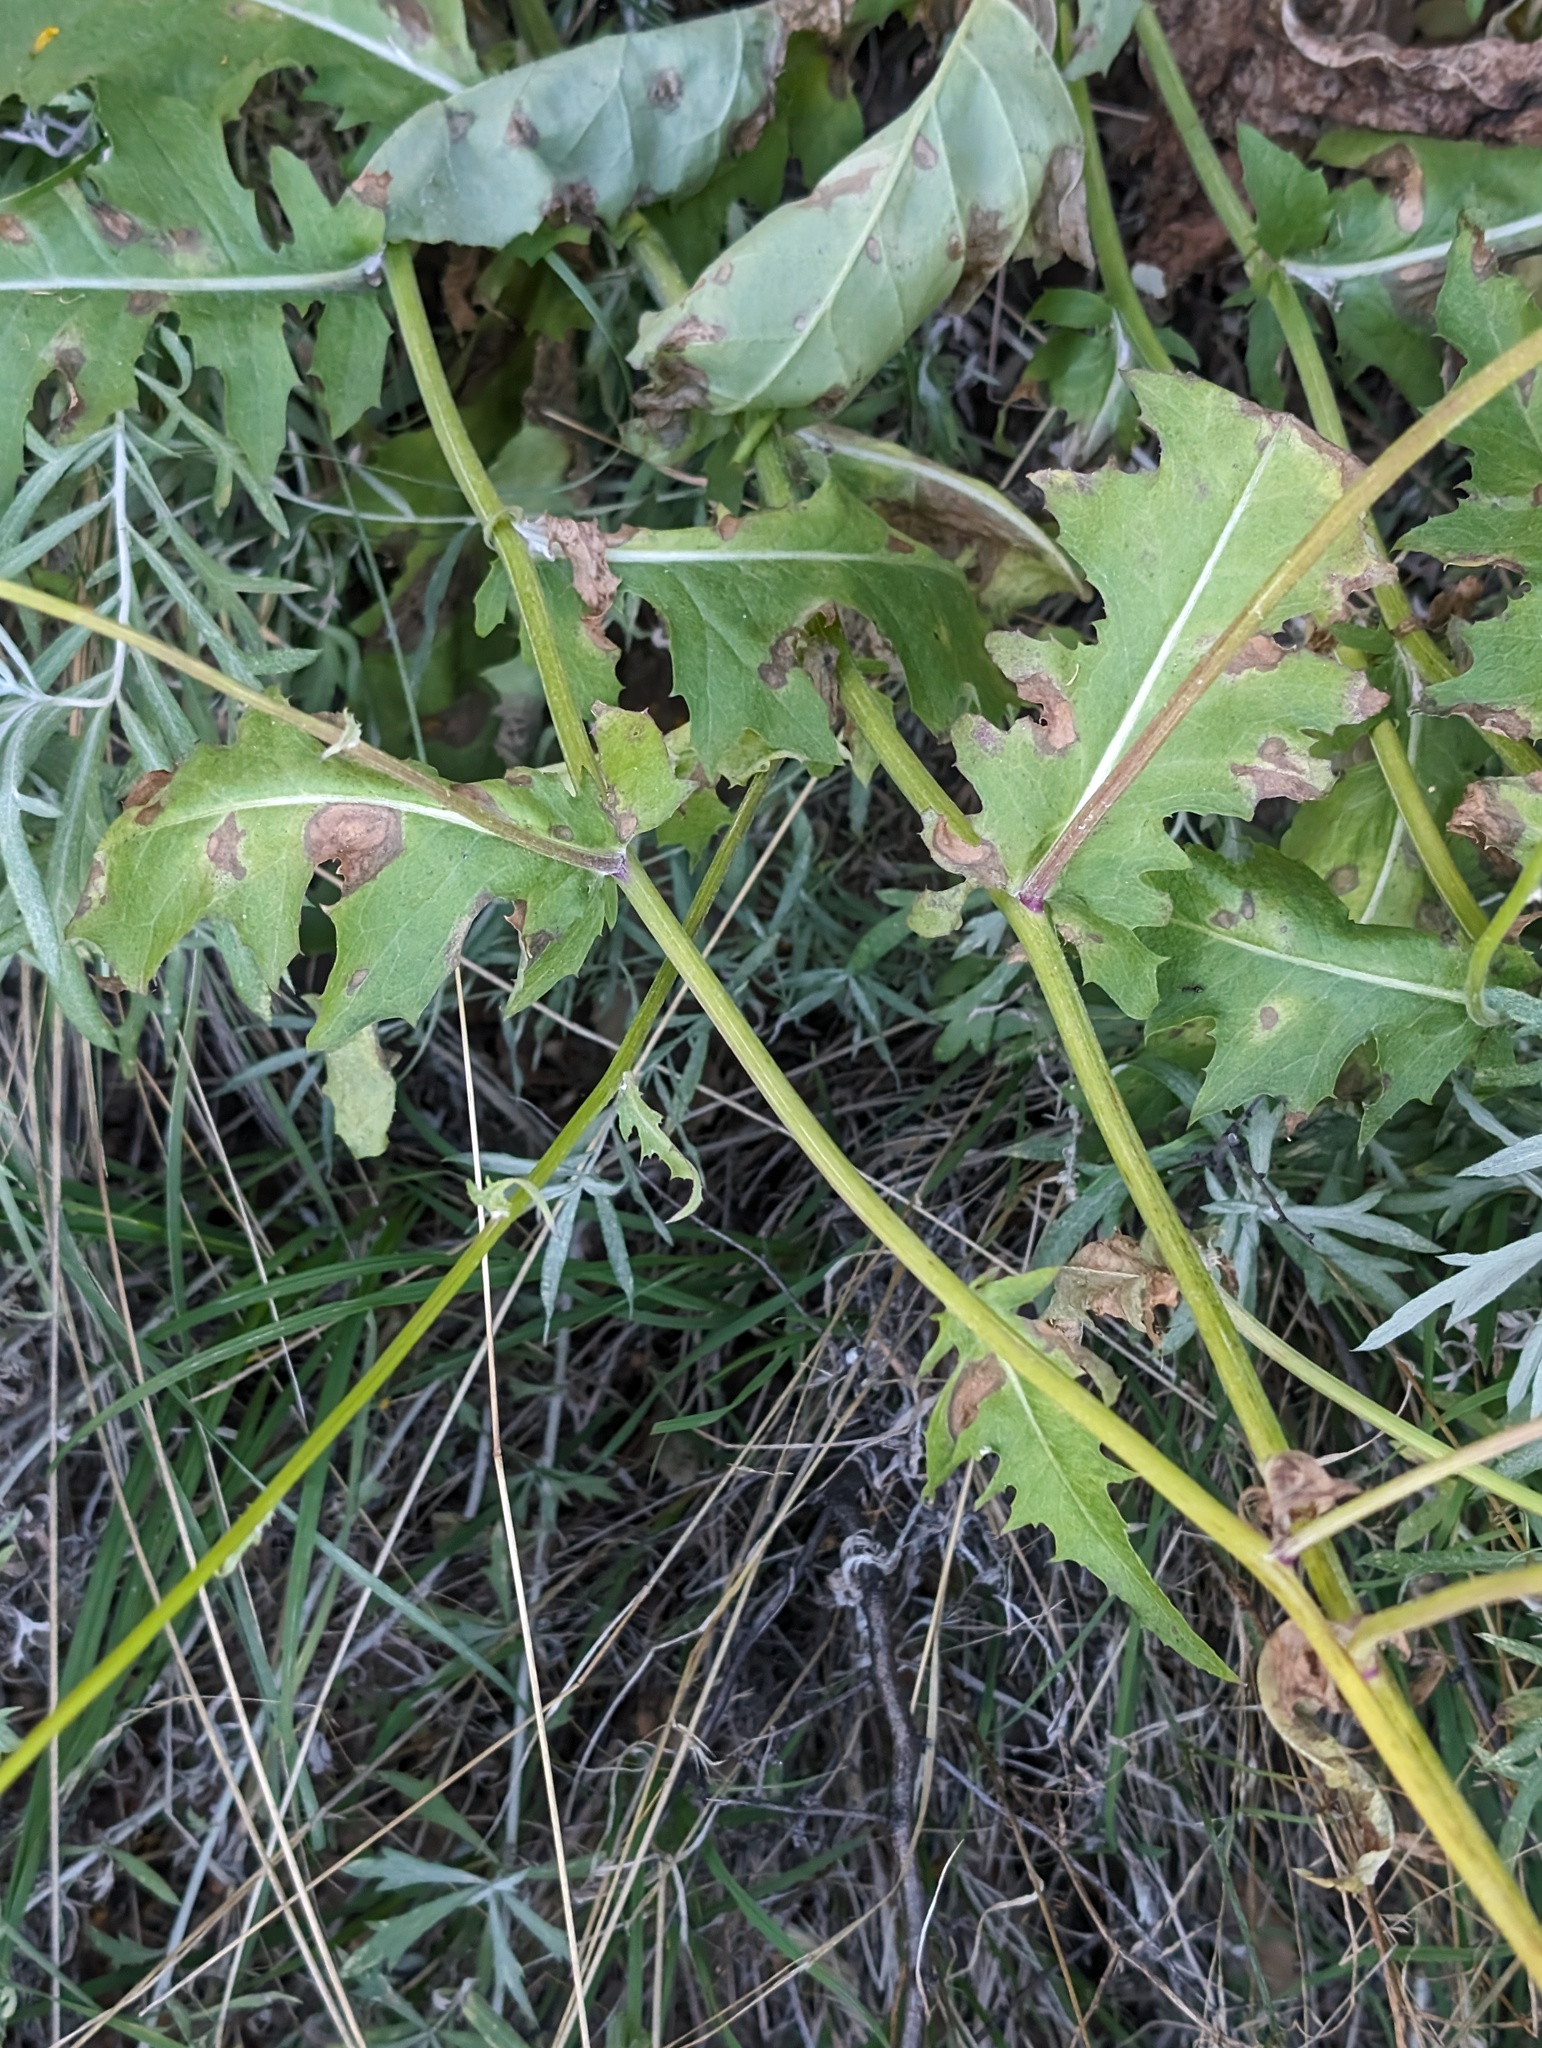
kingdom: Plantae
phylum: Tracheophyta
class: Magnoliopsida
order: Asterales
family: Asteraceae
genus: Packera
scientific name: Packera moranii
